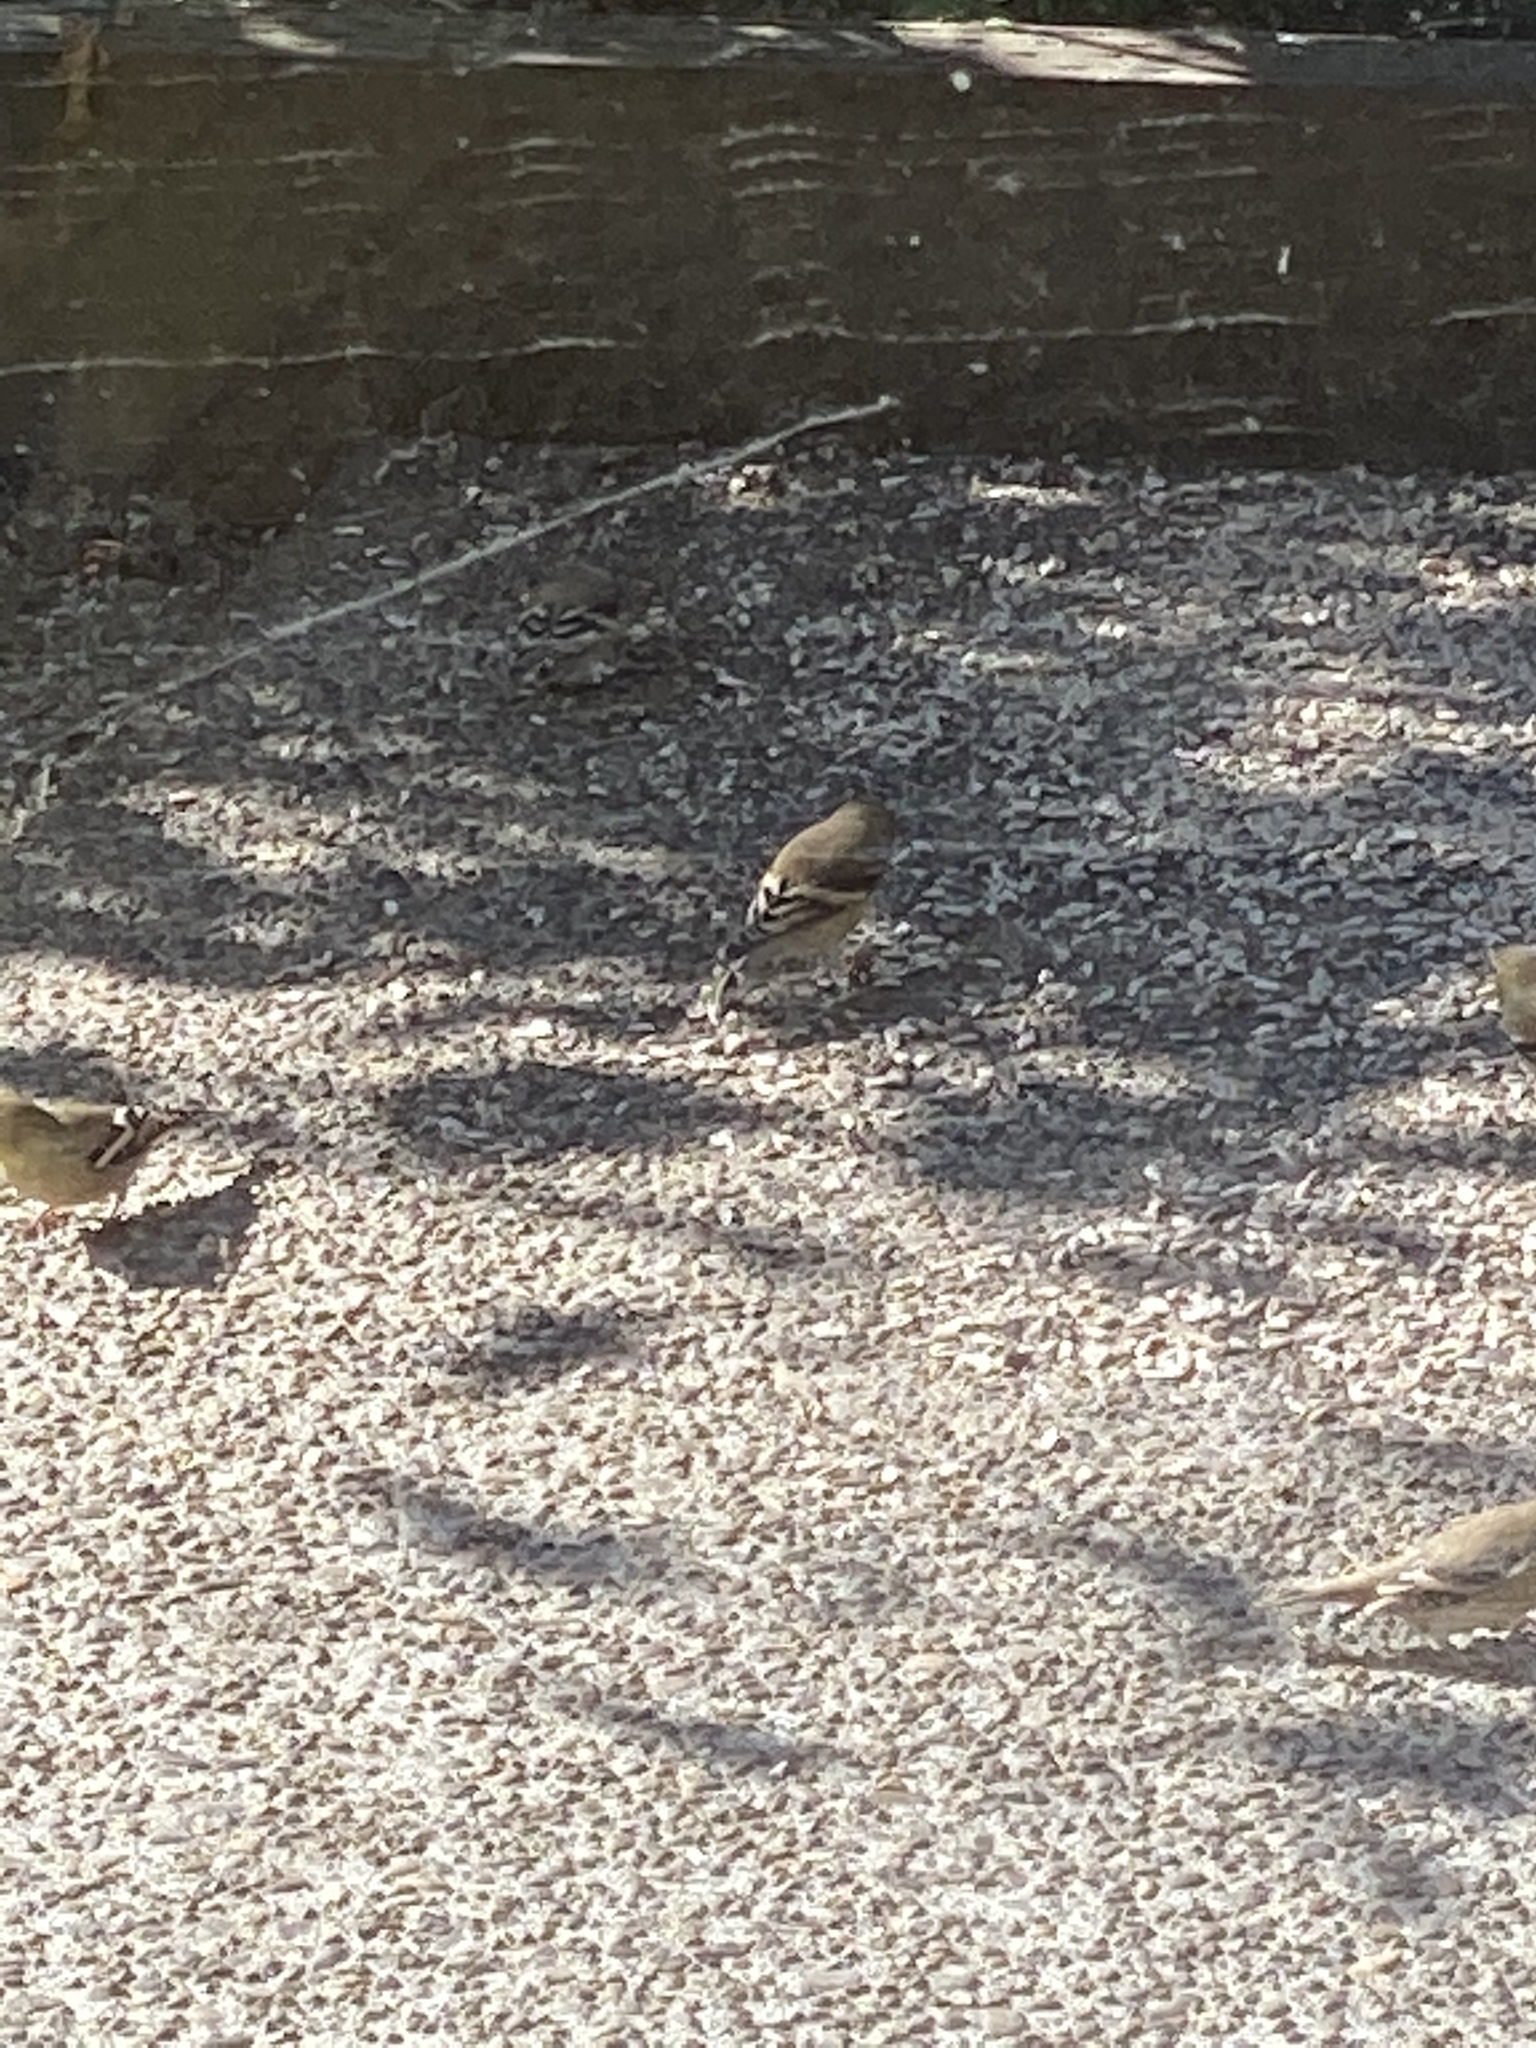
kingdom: Animalia
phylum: Chordata
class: Aves
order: Passeriformes
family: Fringillidae
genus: Spinus
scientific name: Spinus psaltria
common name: Lesser goldfinch
